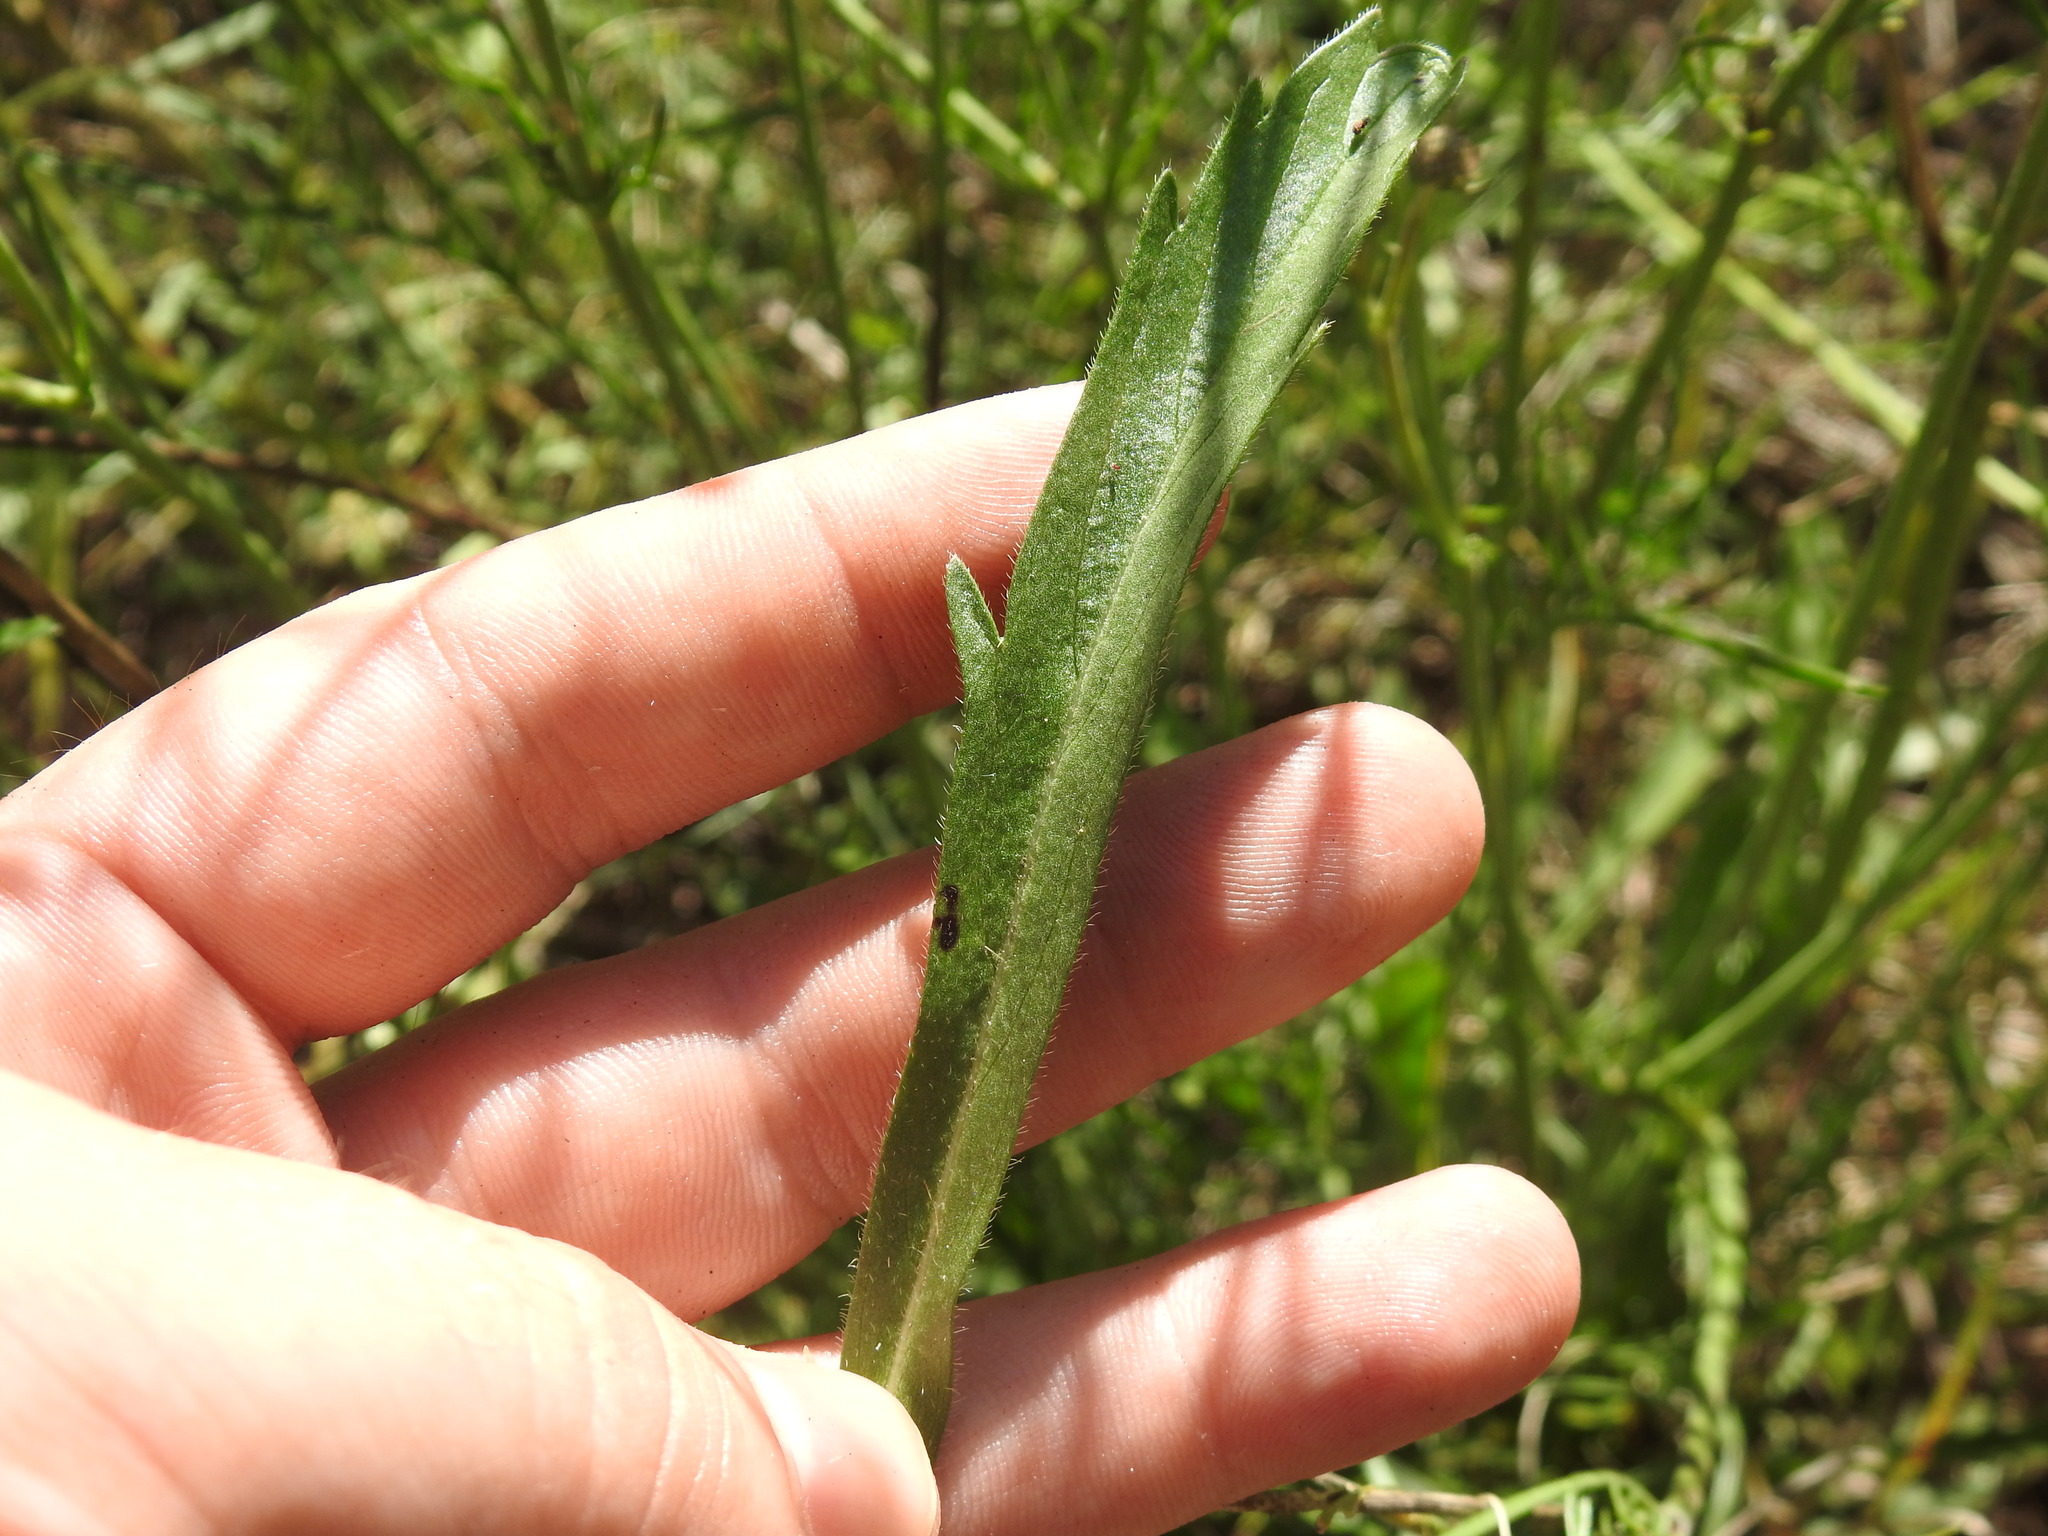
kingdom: Plantae
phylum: Tracheophyta
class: Magnoliopsida
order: Dipsacales
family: Caprifoliaceae
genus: Scabiosa
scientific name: Scabiosa columbaria
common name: Small scabious
